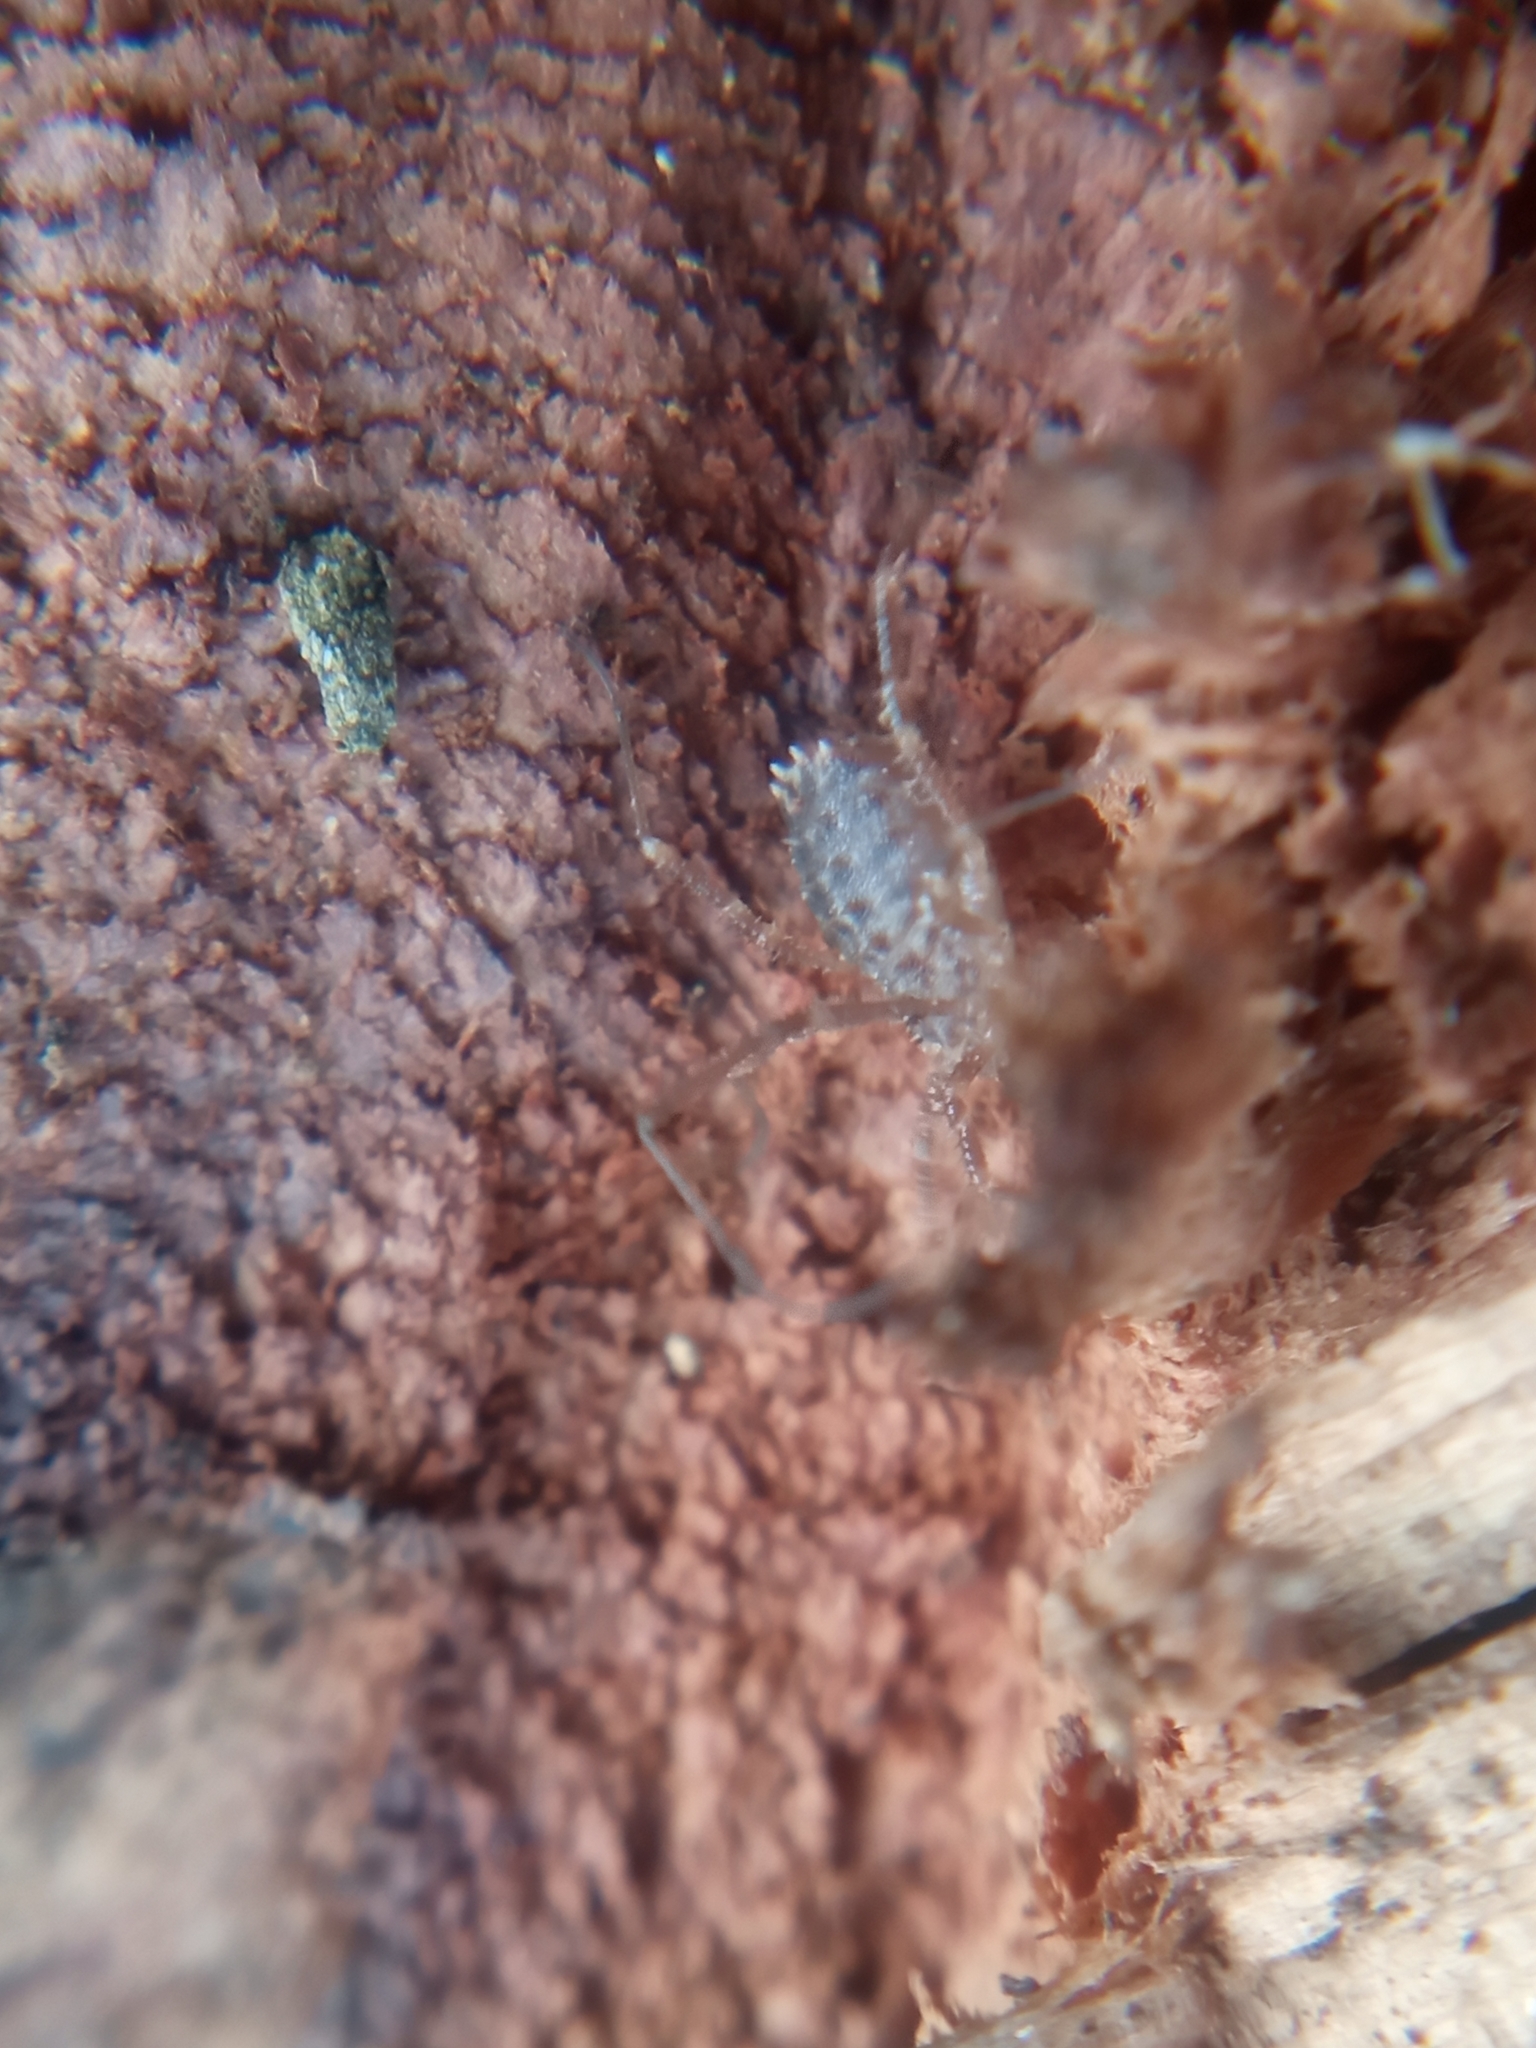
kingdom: Animalia
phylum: Arthropoda
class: Arachnida
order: Opiliones
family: Sclerosomatidae
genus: Homalenotus
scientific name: Homalenotus quadridentatus
